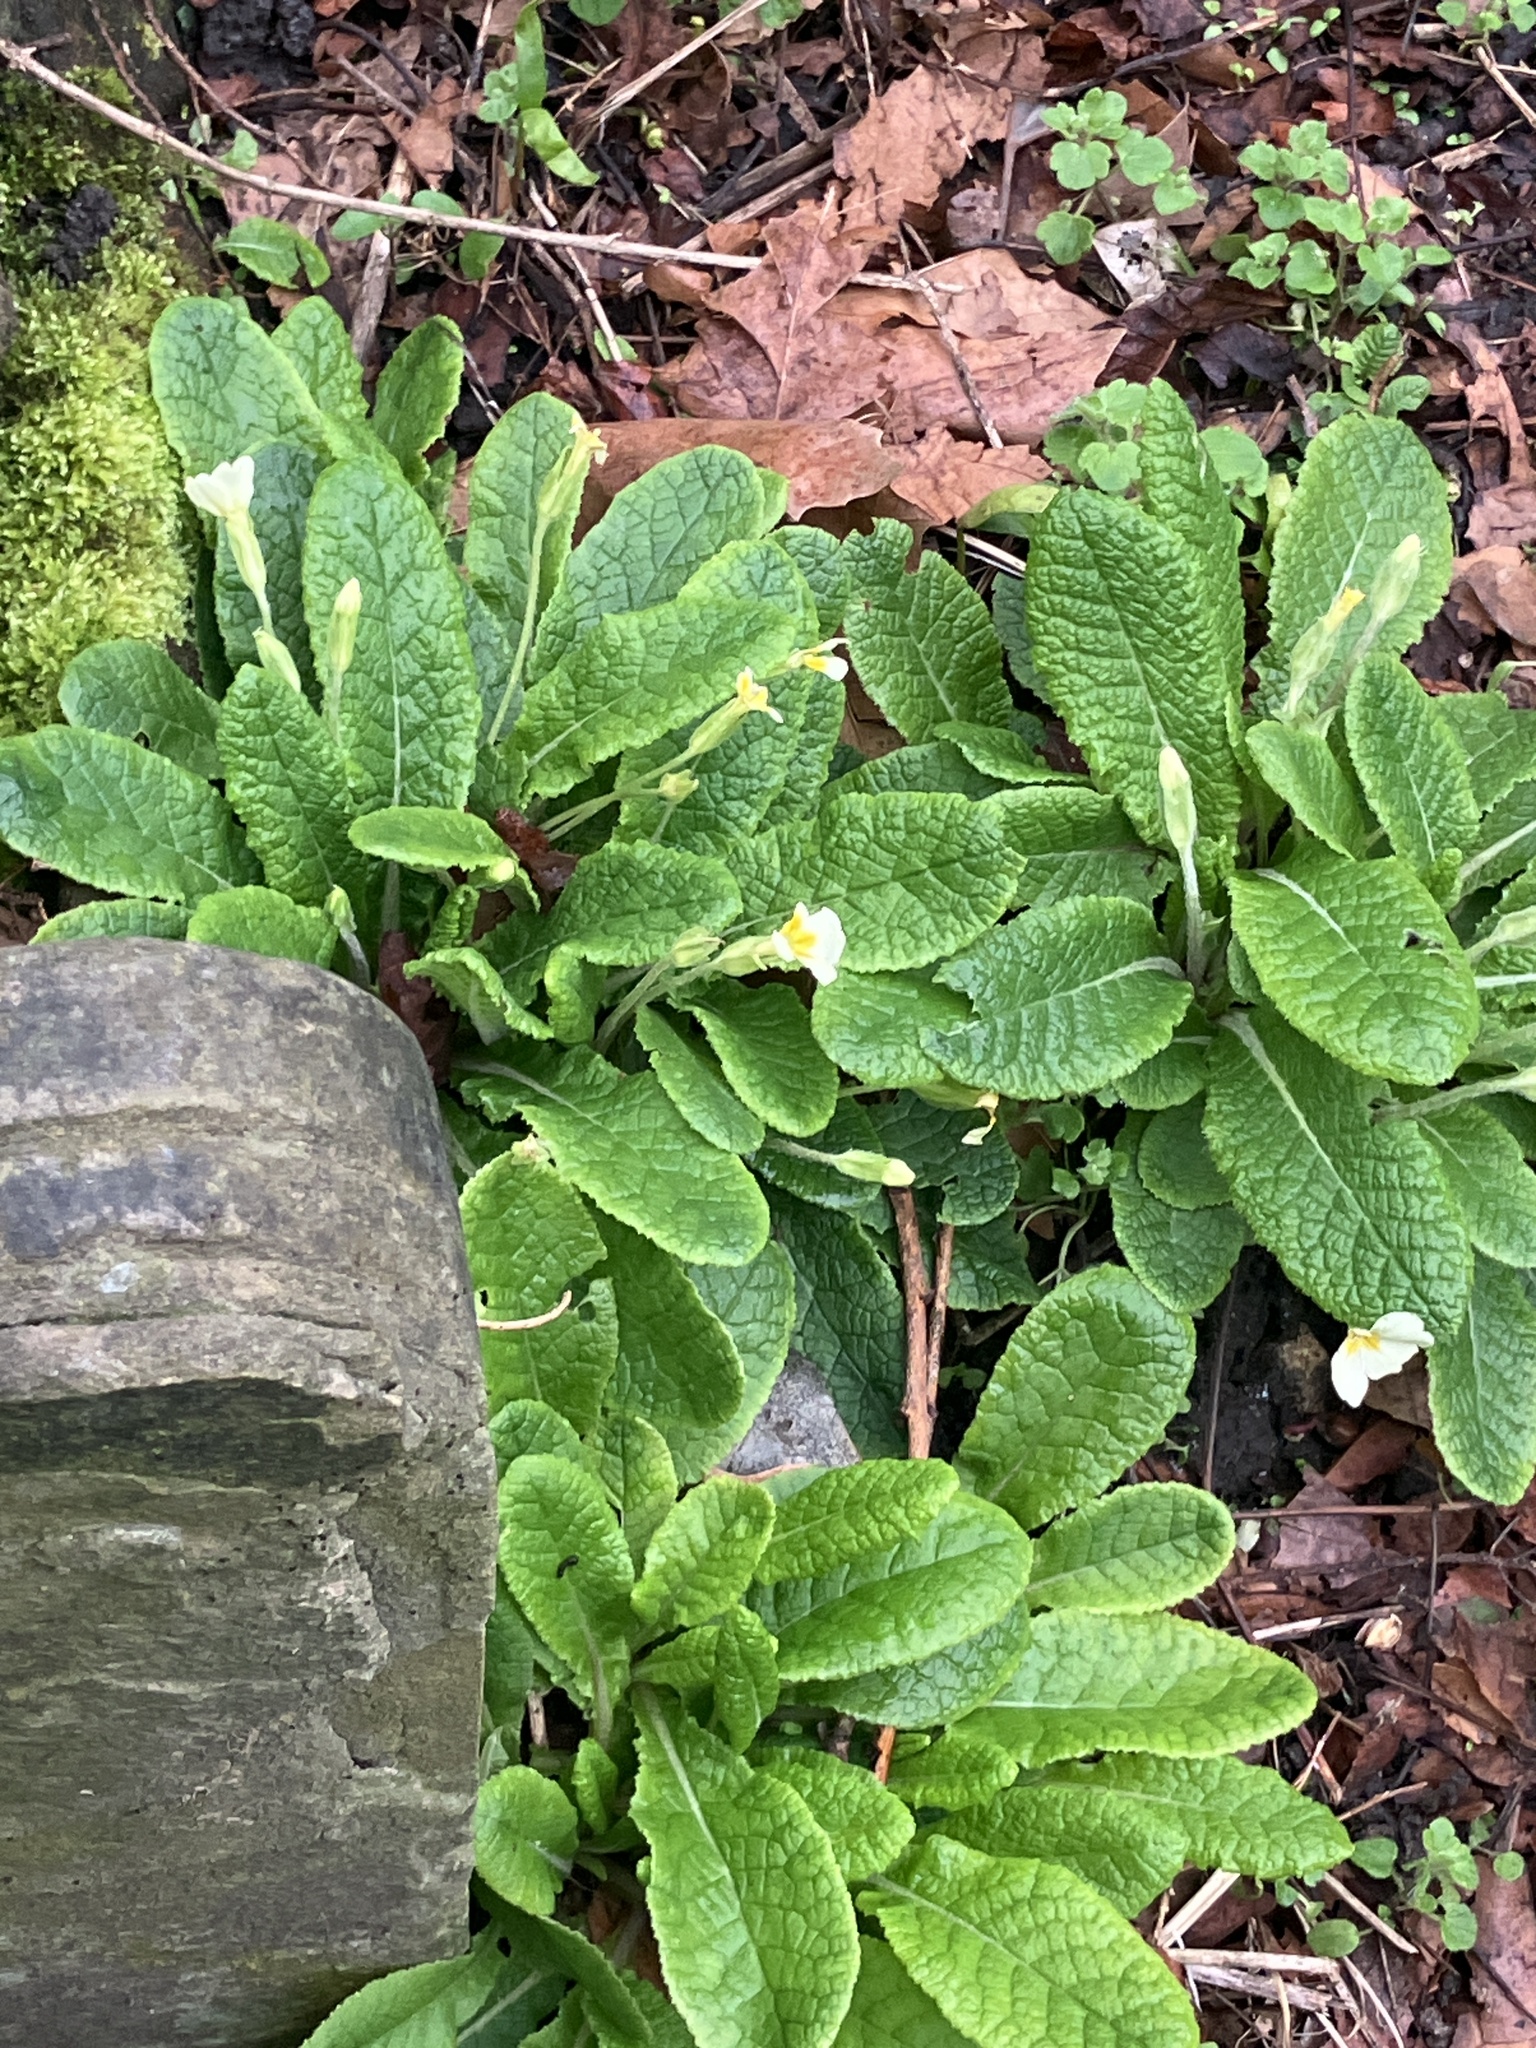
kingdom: Plantae
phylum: Tracheophyta
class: Magnoliopsida
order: Ericales
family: Primulaceae
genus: Primula
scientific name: Primula vulgaris
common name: Primrose
